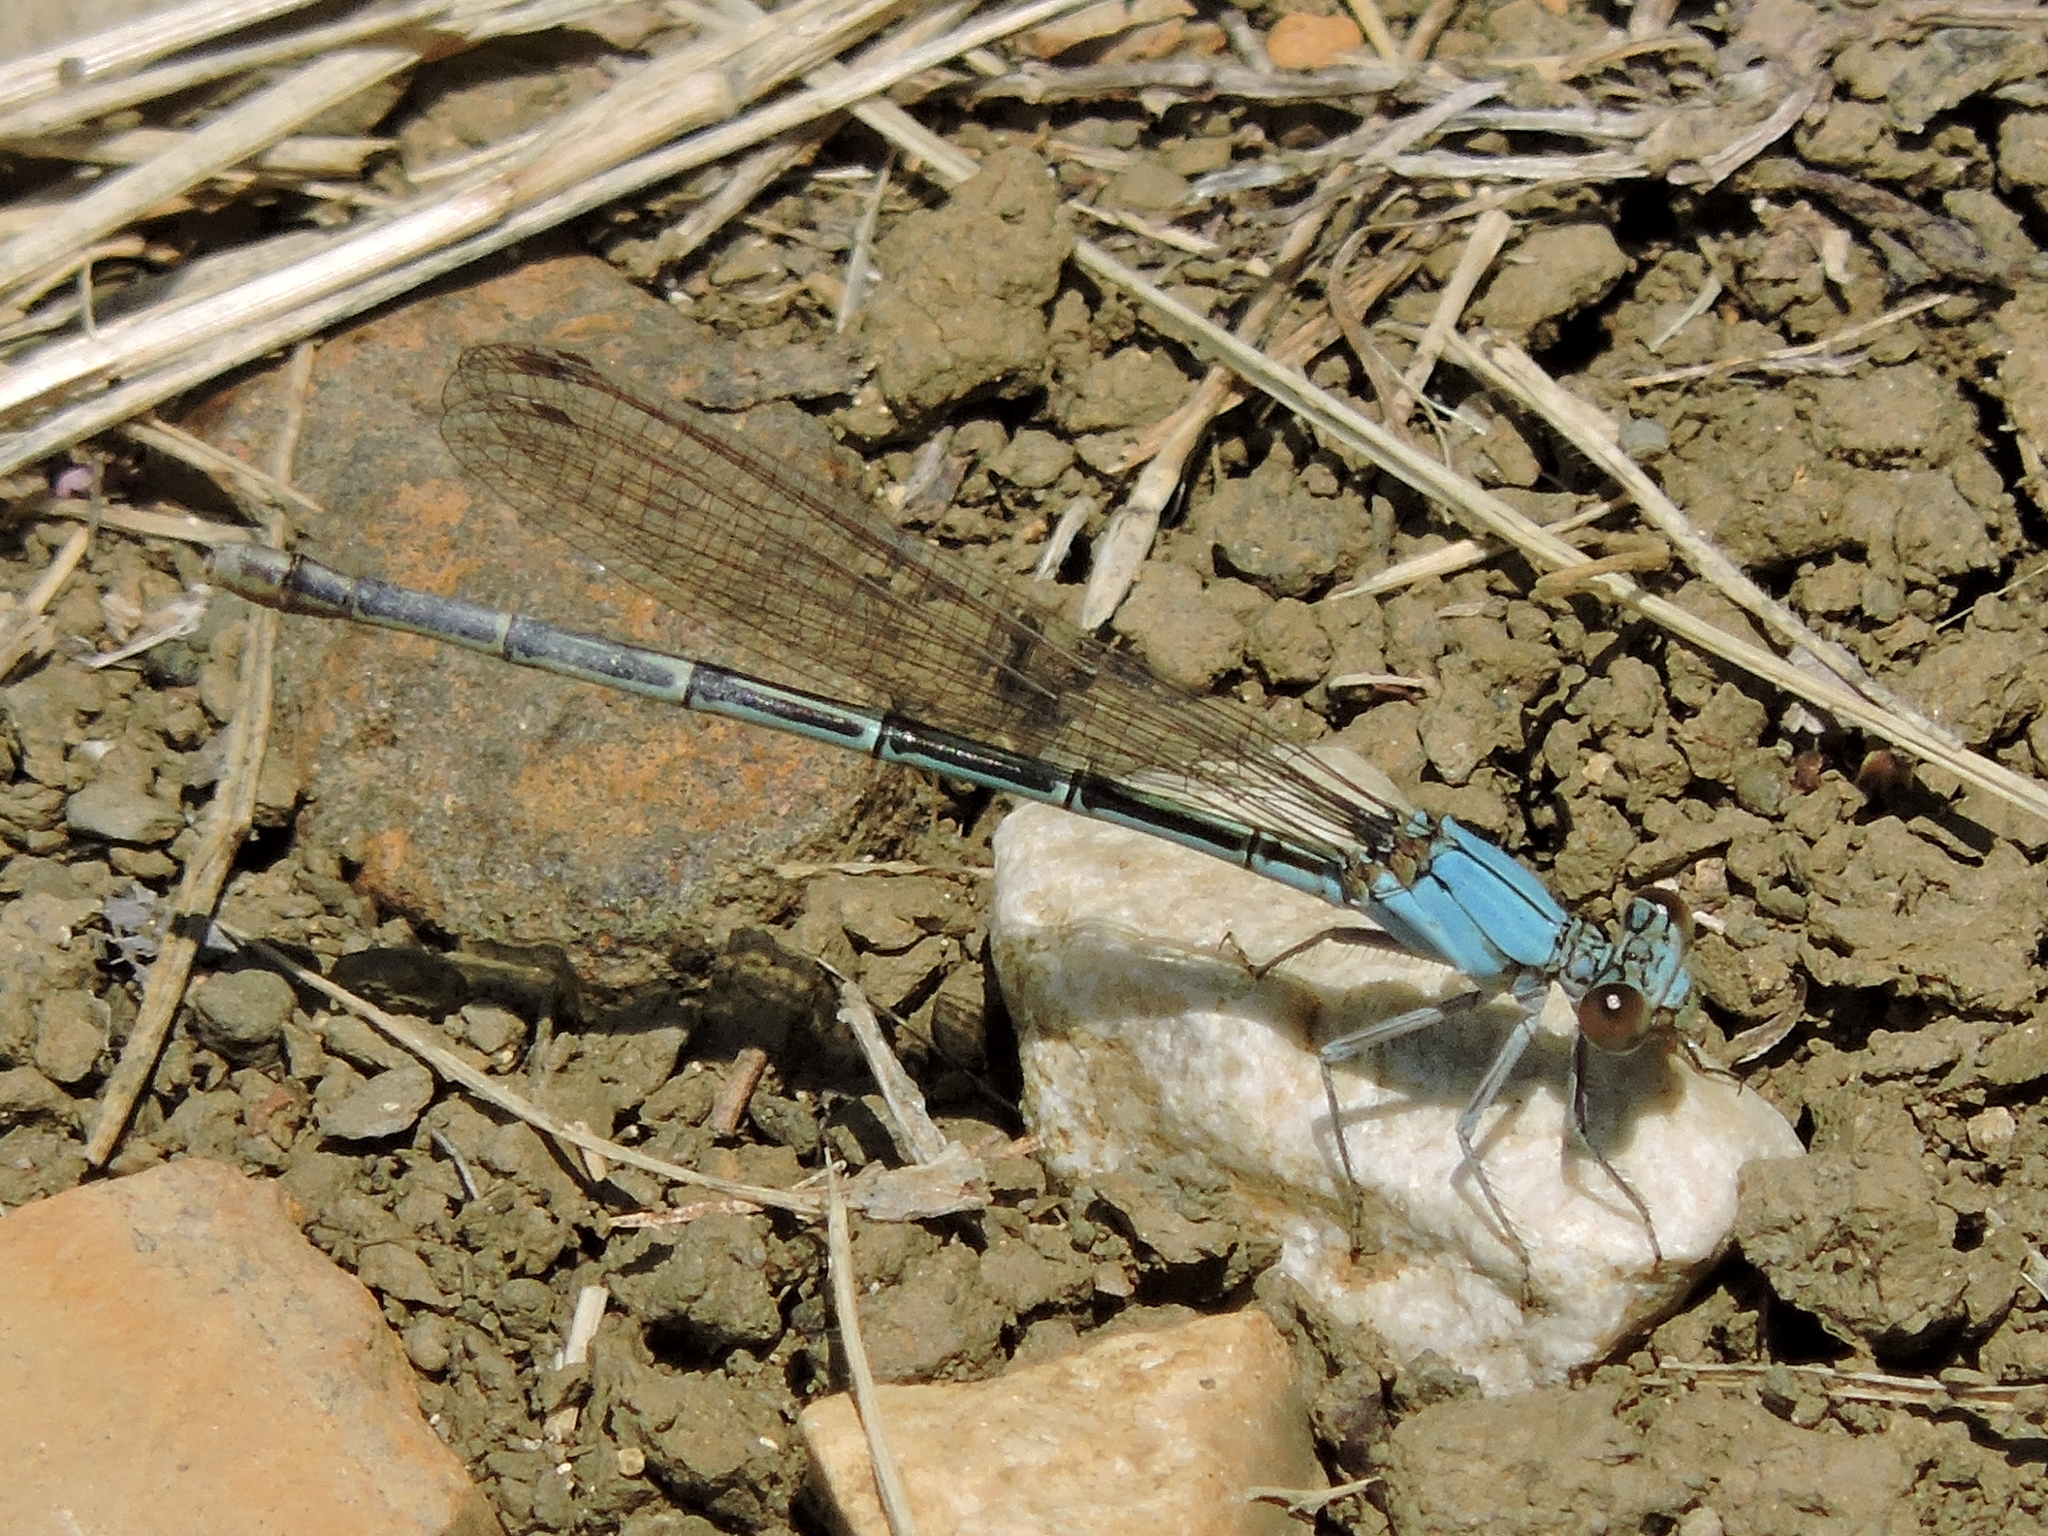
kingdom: Animalia
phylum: Arthropoda
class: Insecta
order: Odonata
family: Coenagrionidae
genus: Argia
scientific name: Argia
